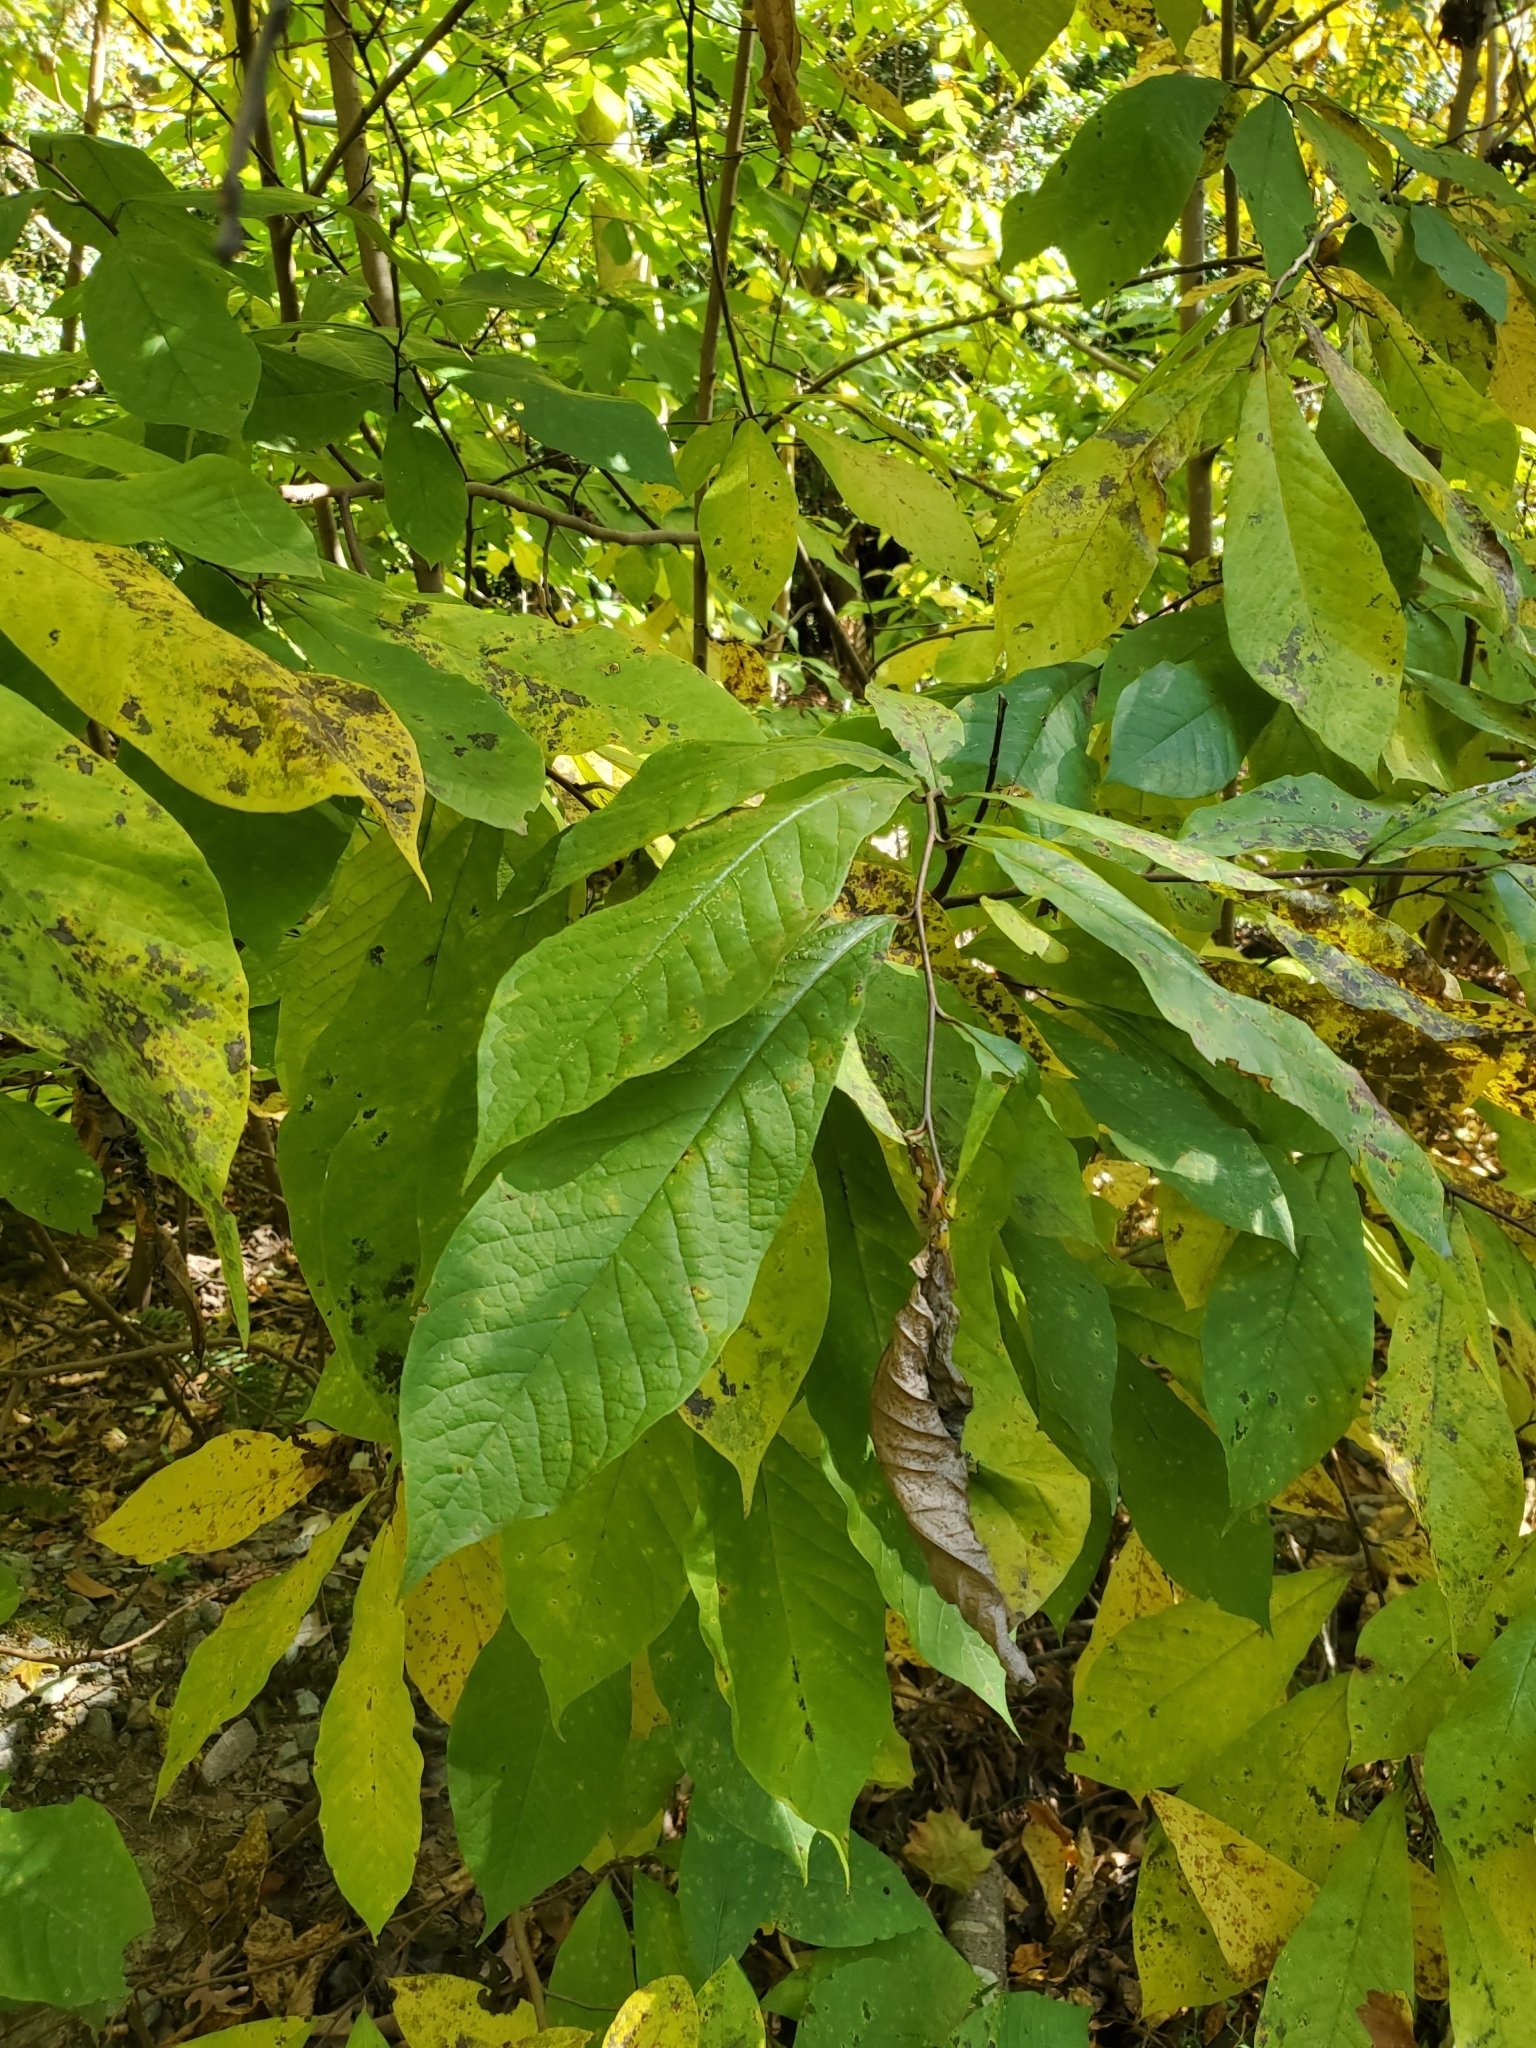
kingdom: Plantae
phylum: Tracheophyta
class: Magnoliopsida
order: Magnoliales
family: Annonaceae
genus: Asimina
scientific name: Asimina triloba
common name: Dog-banana
